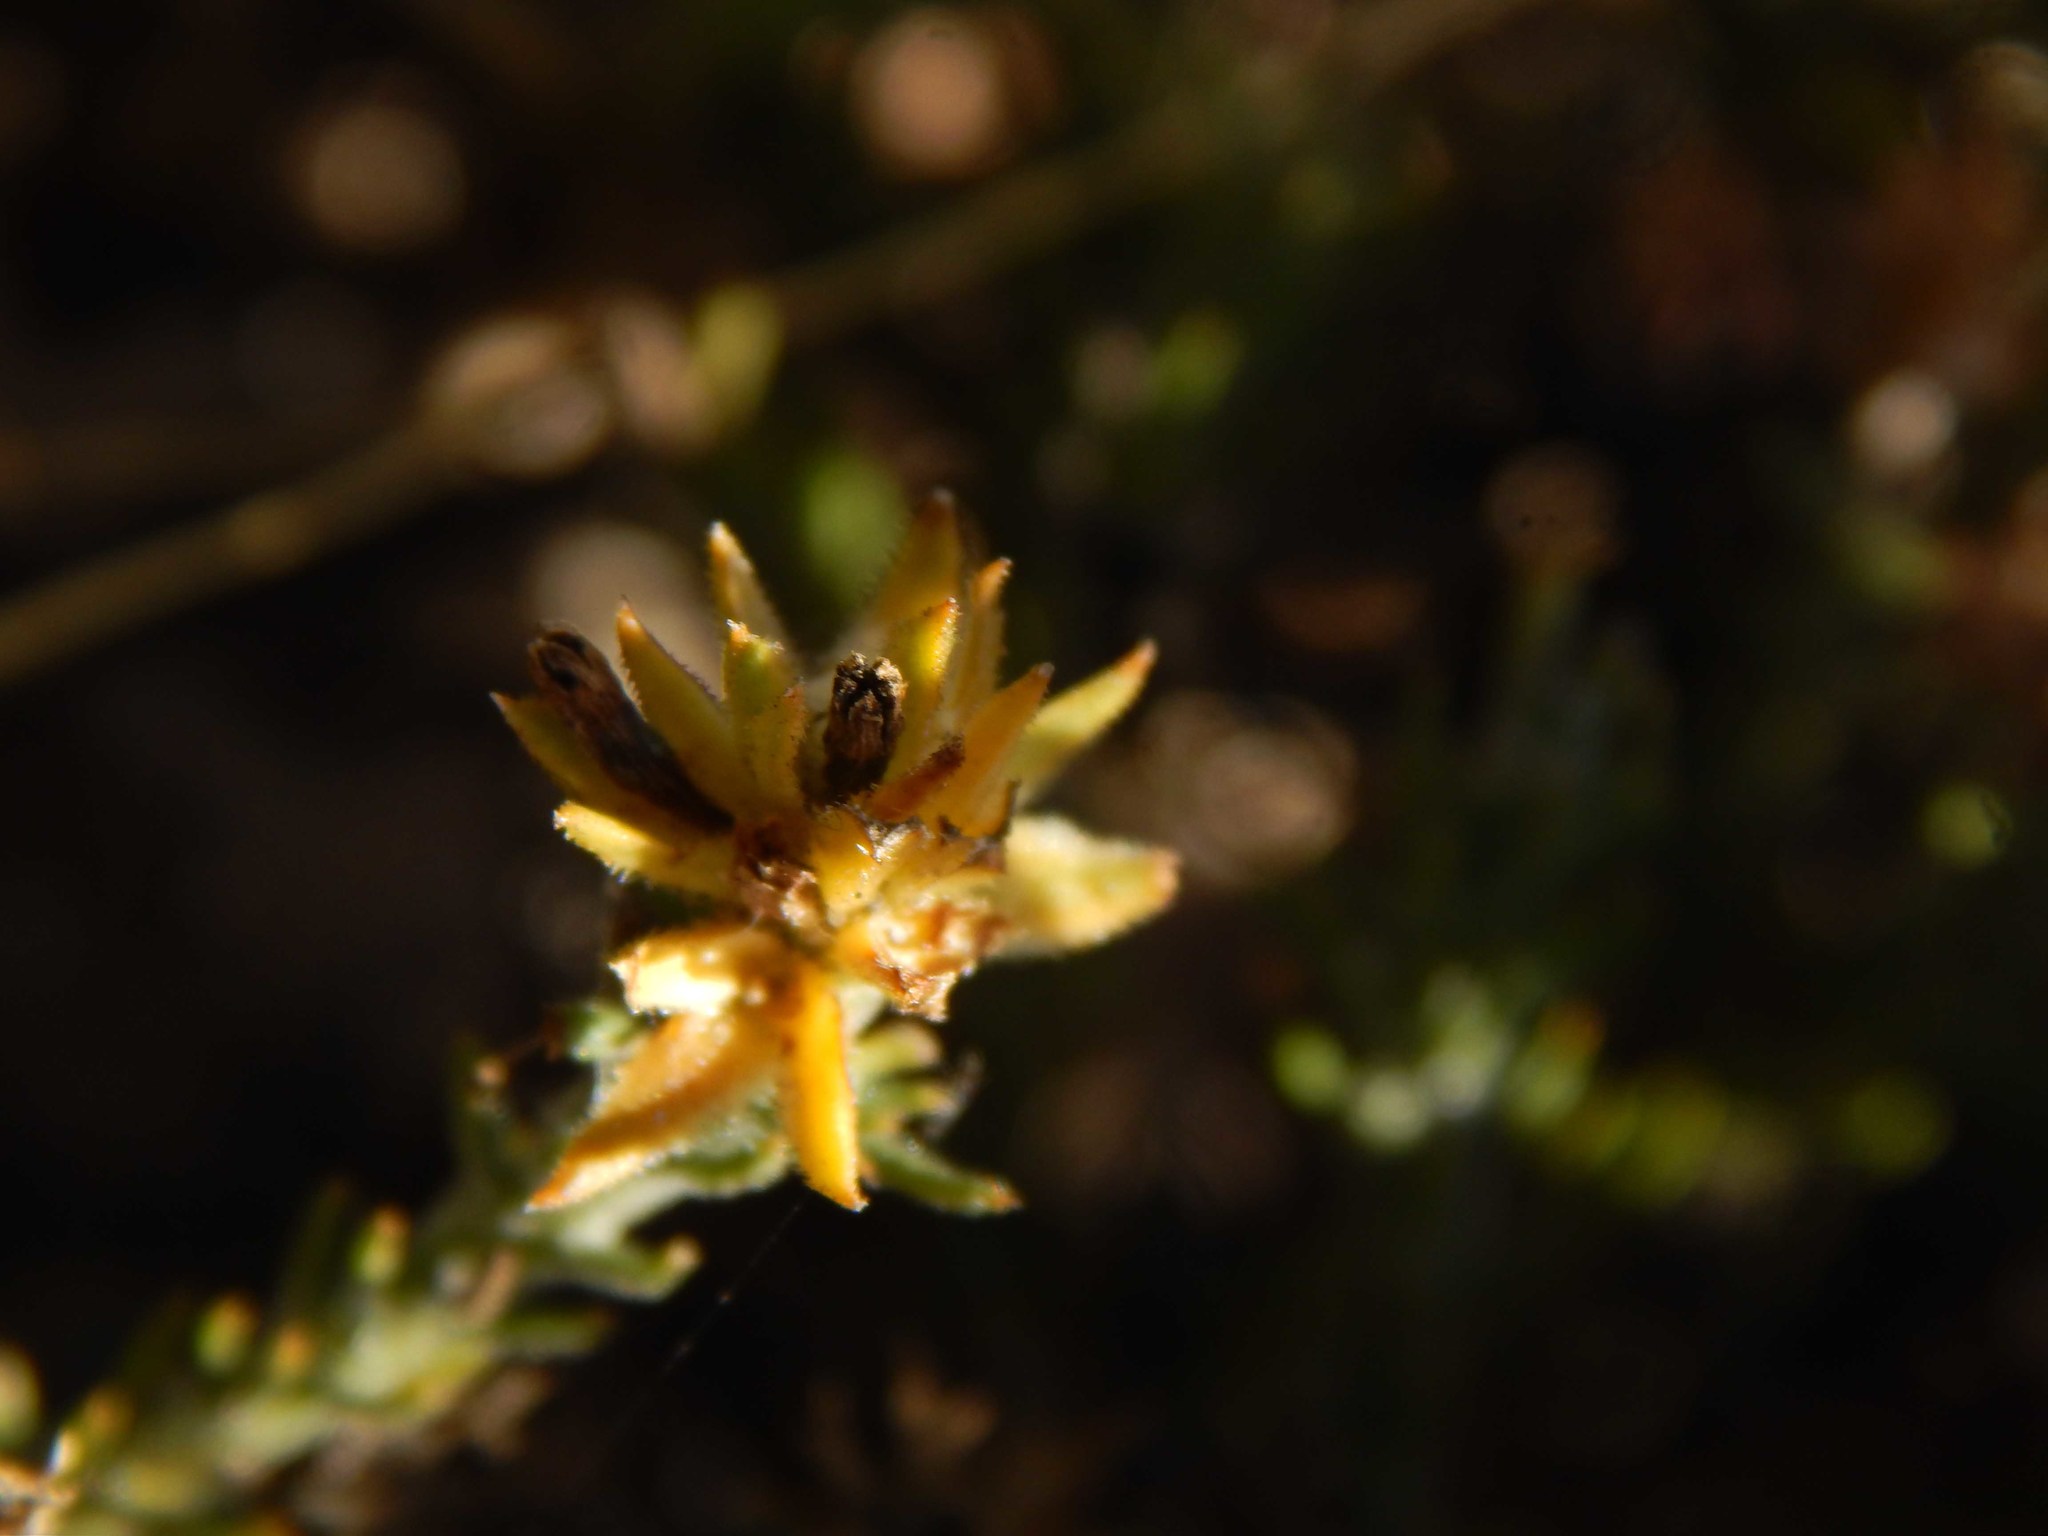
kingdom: Plantae
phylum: Tracheophyta
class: Magnoliopsida
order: Santalales
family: Thesiaceae
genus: Thesium
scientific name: Thesium pubescens
